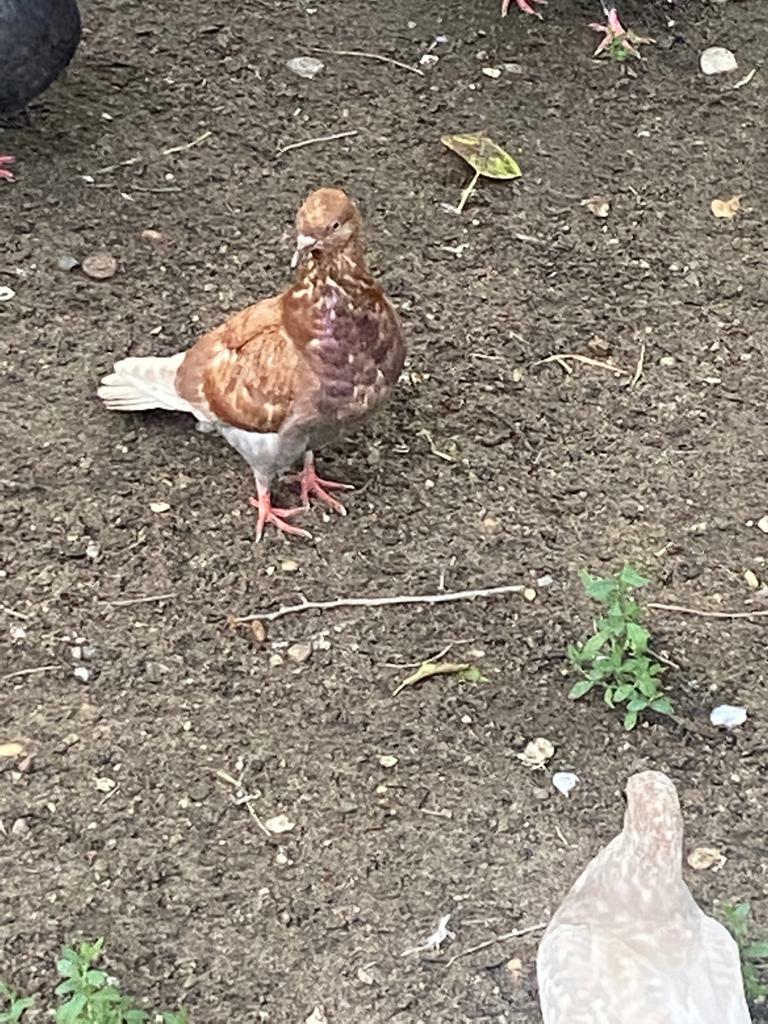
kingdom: Animalia
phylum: Chordata
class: Aves
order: Columbiformes
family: Columbidae
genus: Columba
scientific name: Columba livia
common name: Rock pigeon
